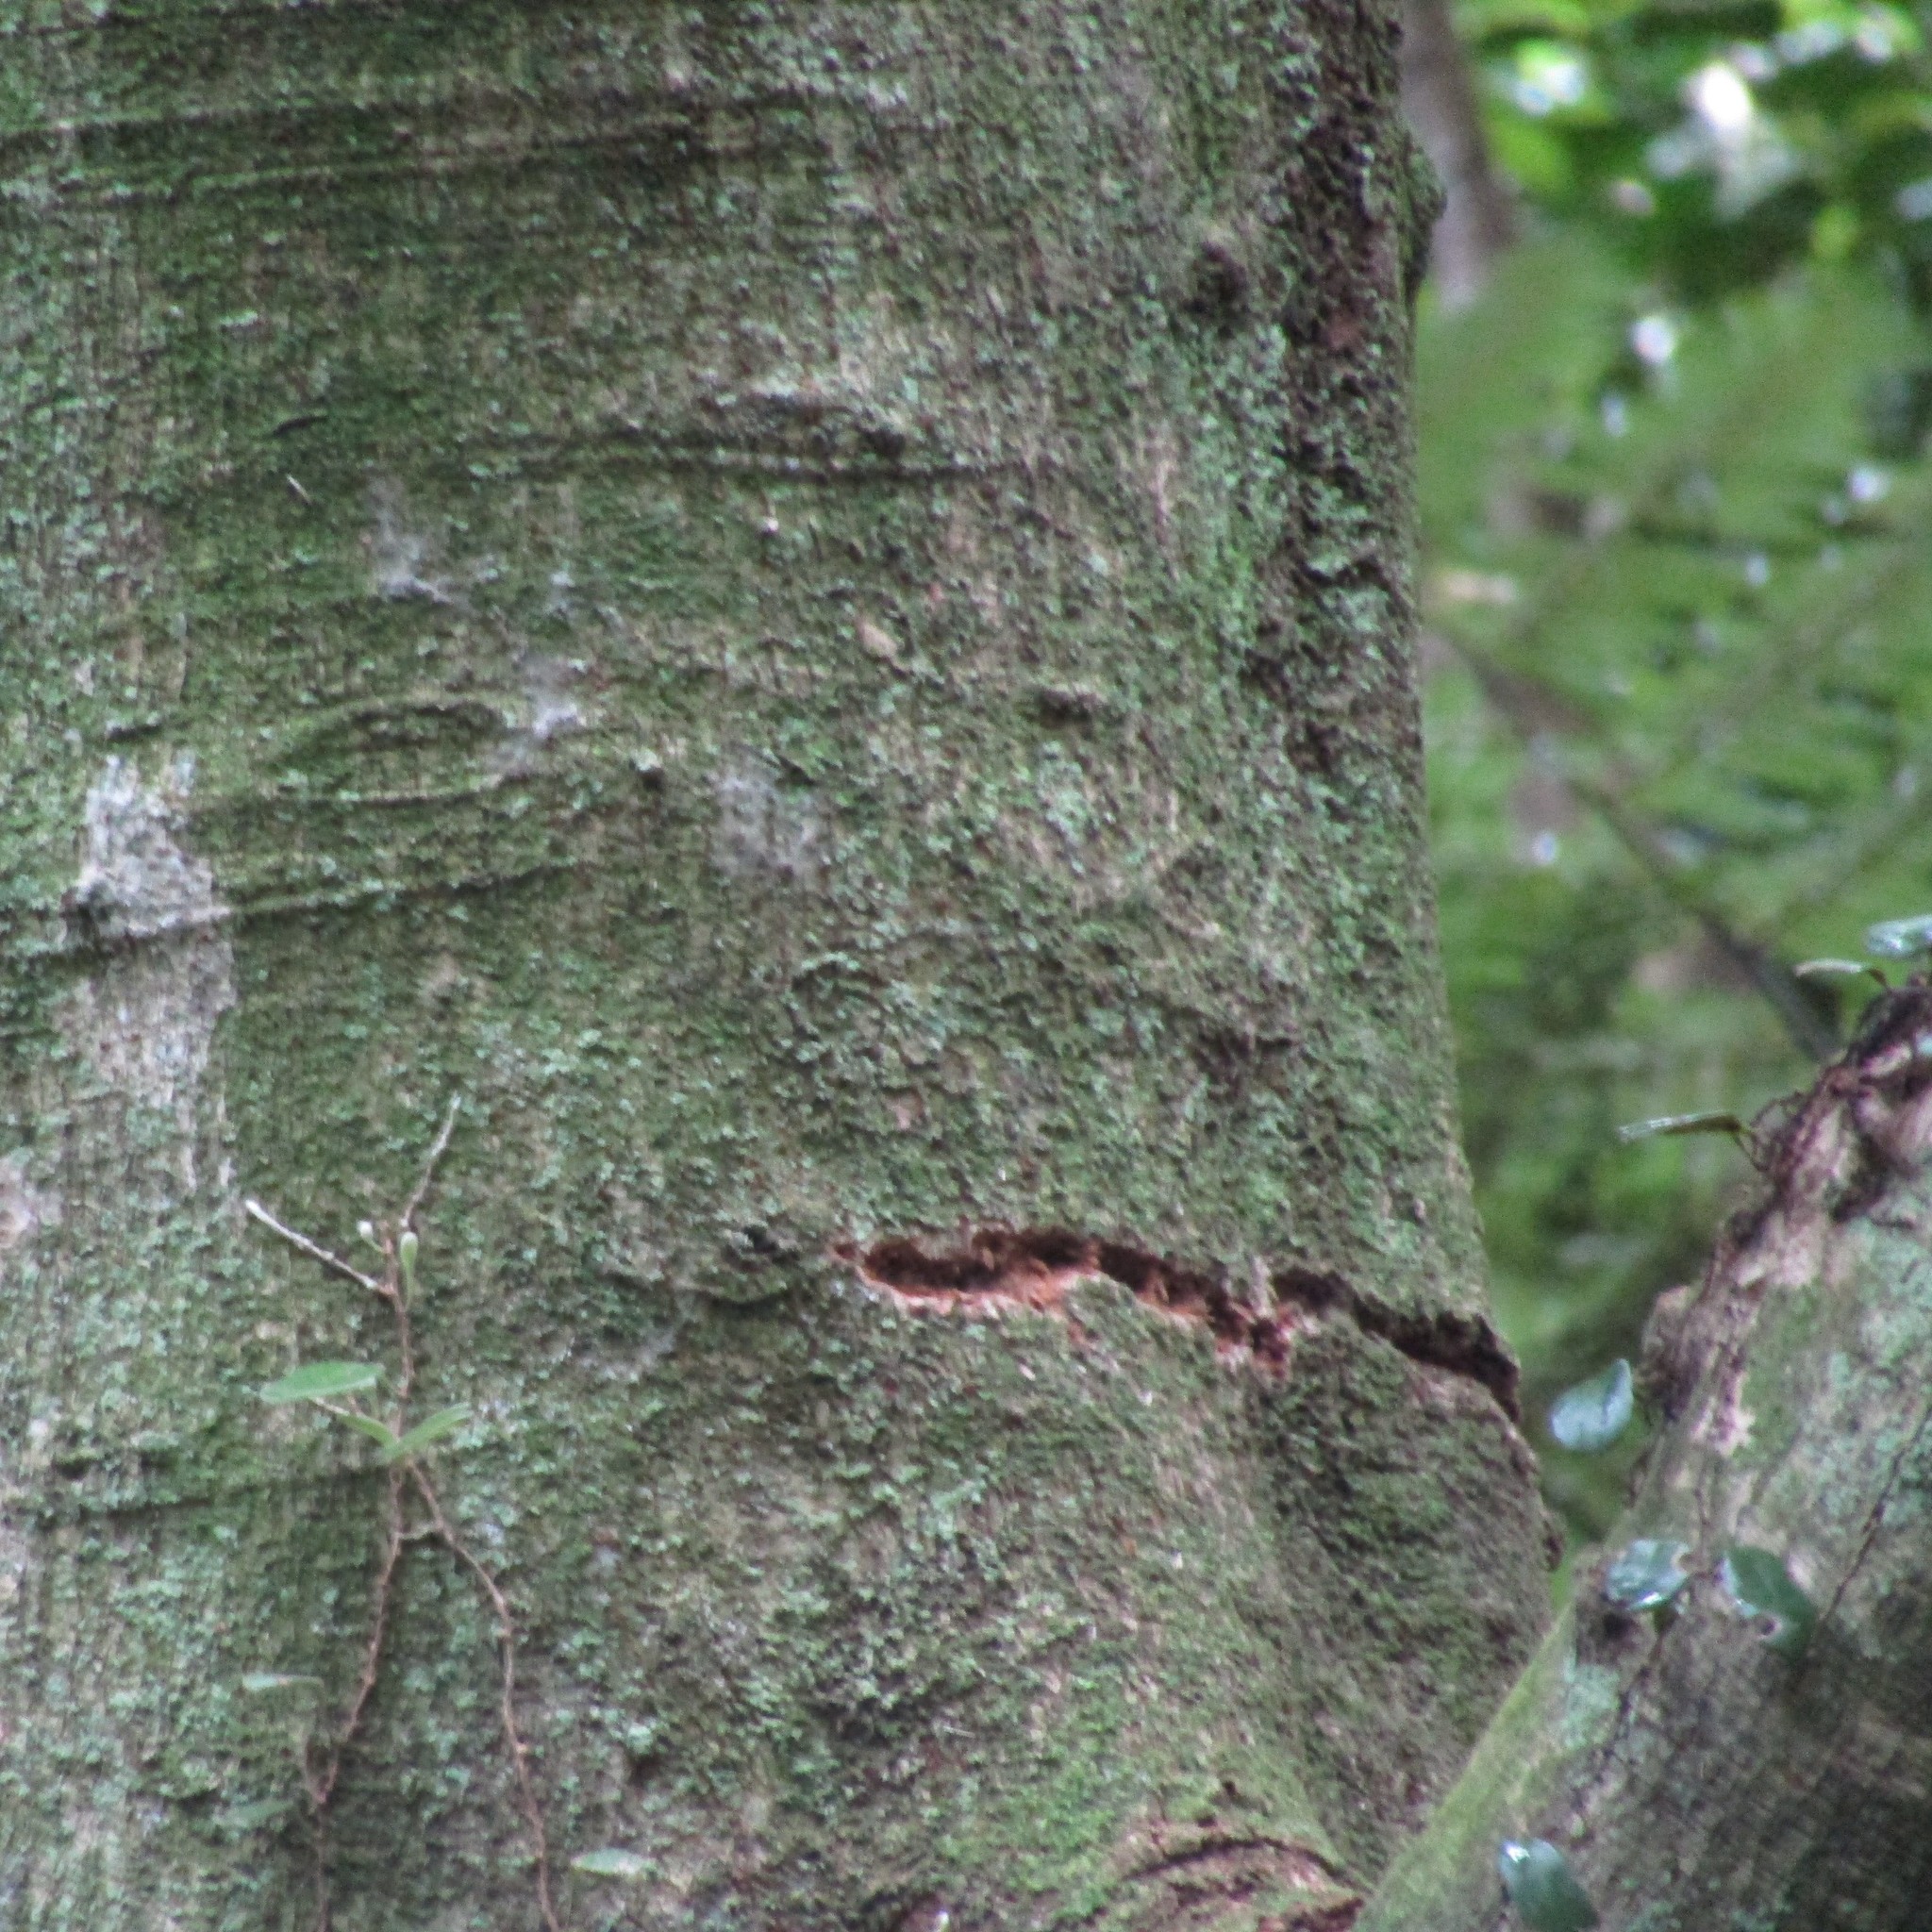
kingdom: Animalia
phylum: Chordata
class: Aves
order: Psittaciformes
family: Psittacidae
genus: Nestor
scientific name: Nestor meridionalis
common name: New zealand kaka
